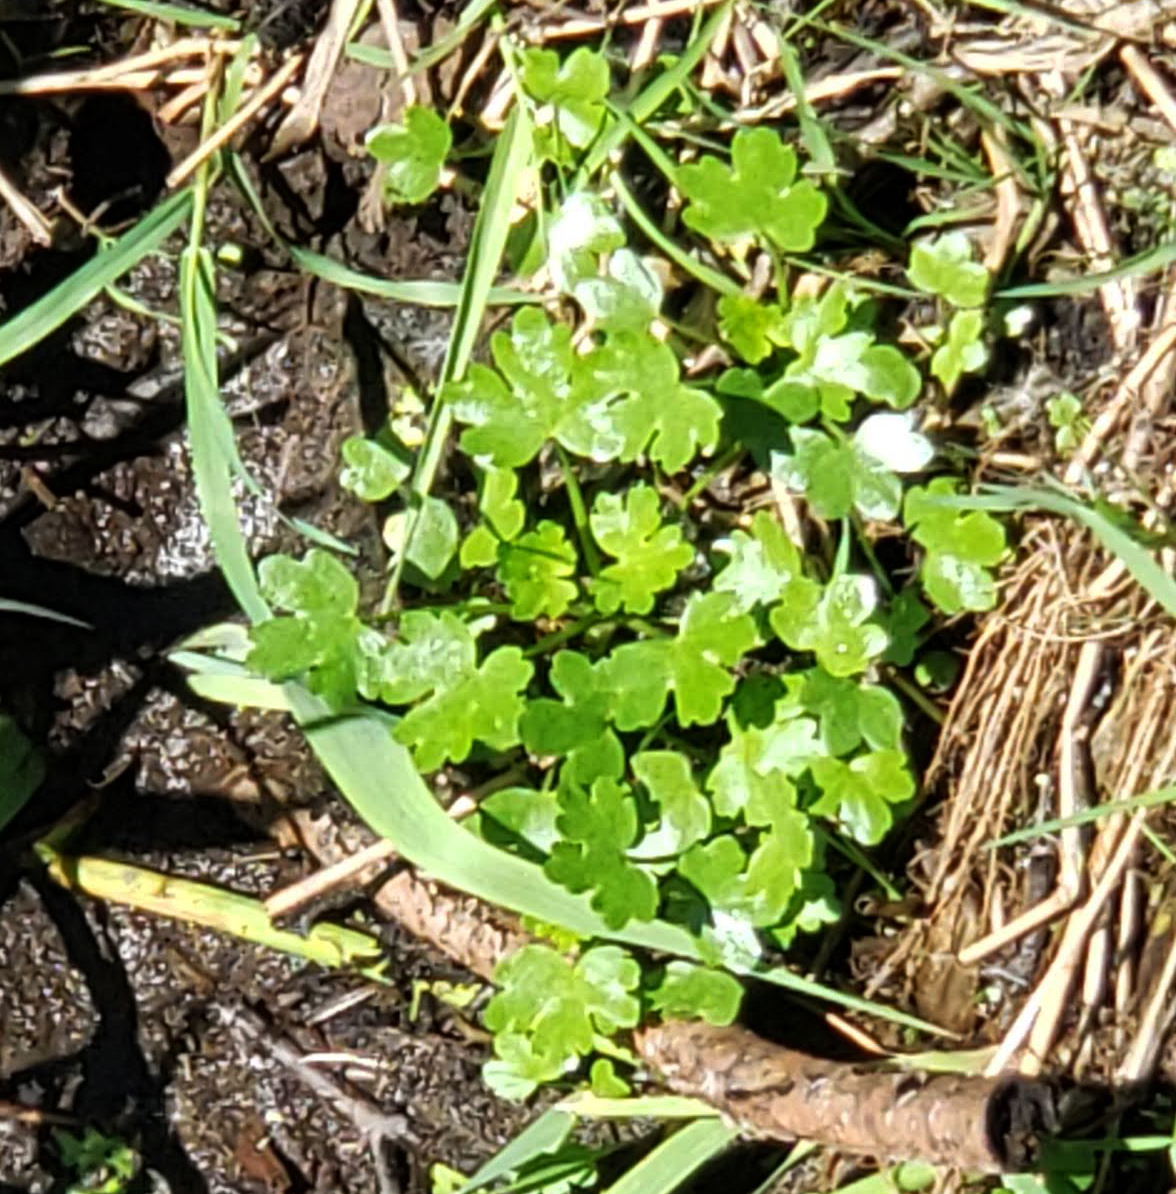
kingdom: Plantae
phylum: Tracheophyta
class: Magnoliopsida
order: Ranunculales
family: Ranunculaceae
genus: Ranunculus
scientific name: Ranunculus sceleratus
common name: Celery-leaved buttercup
